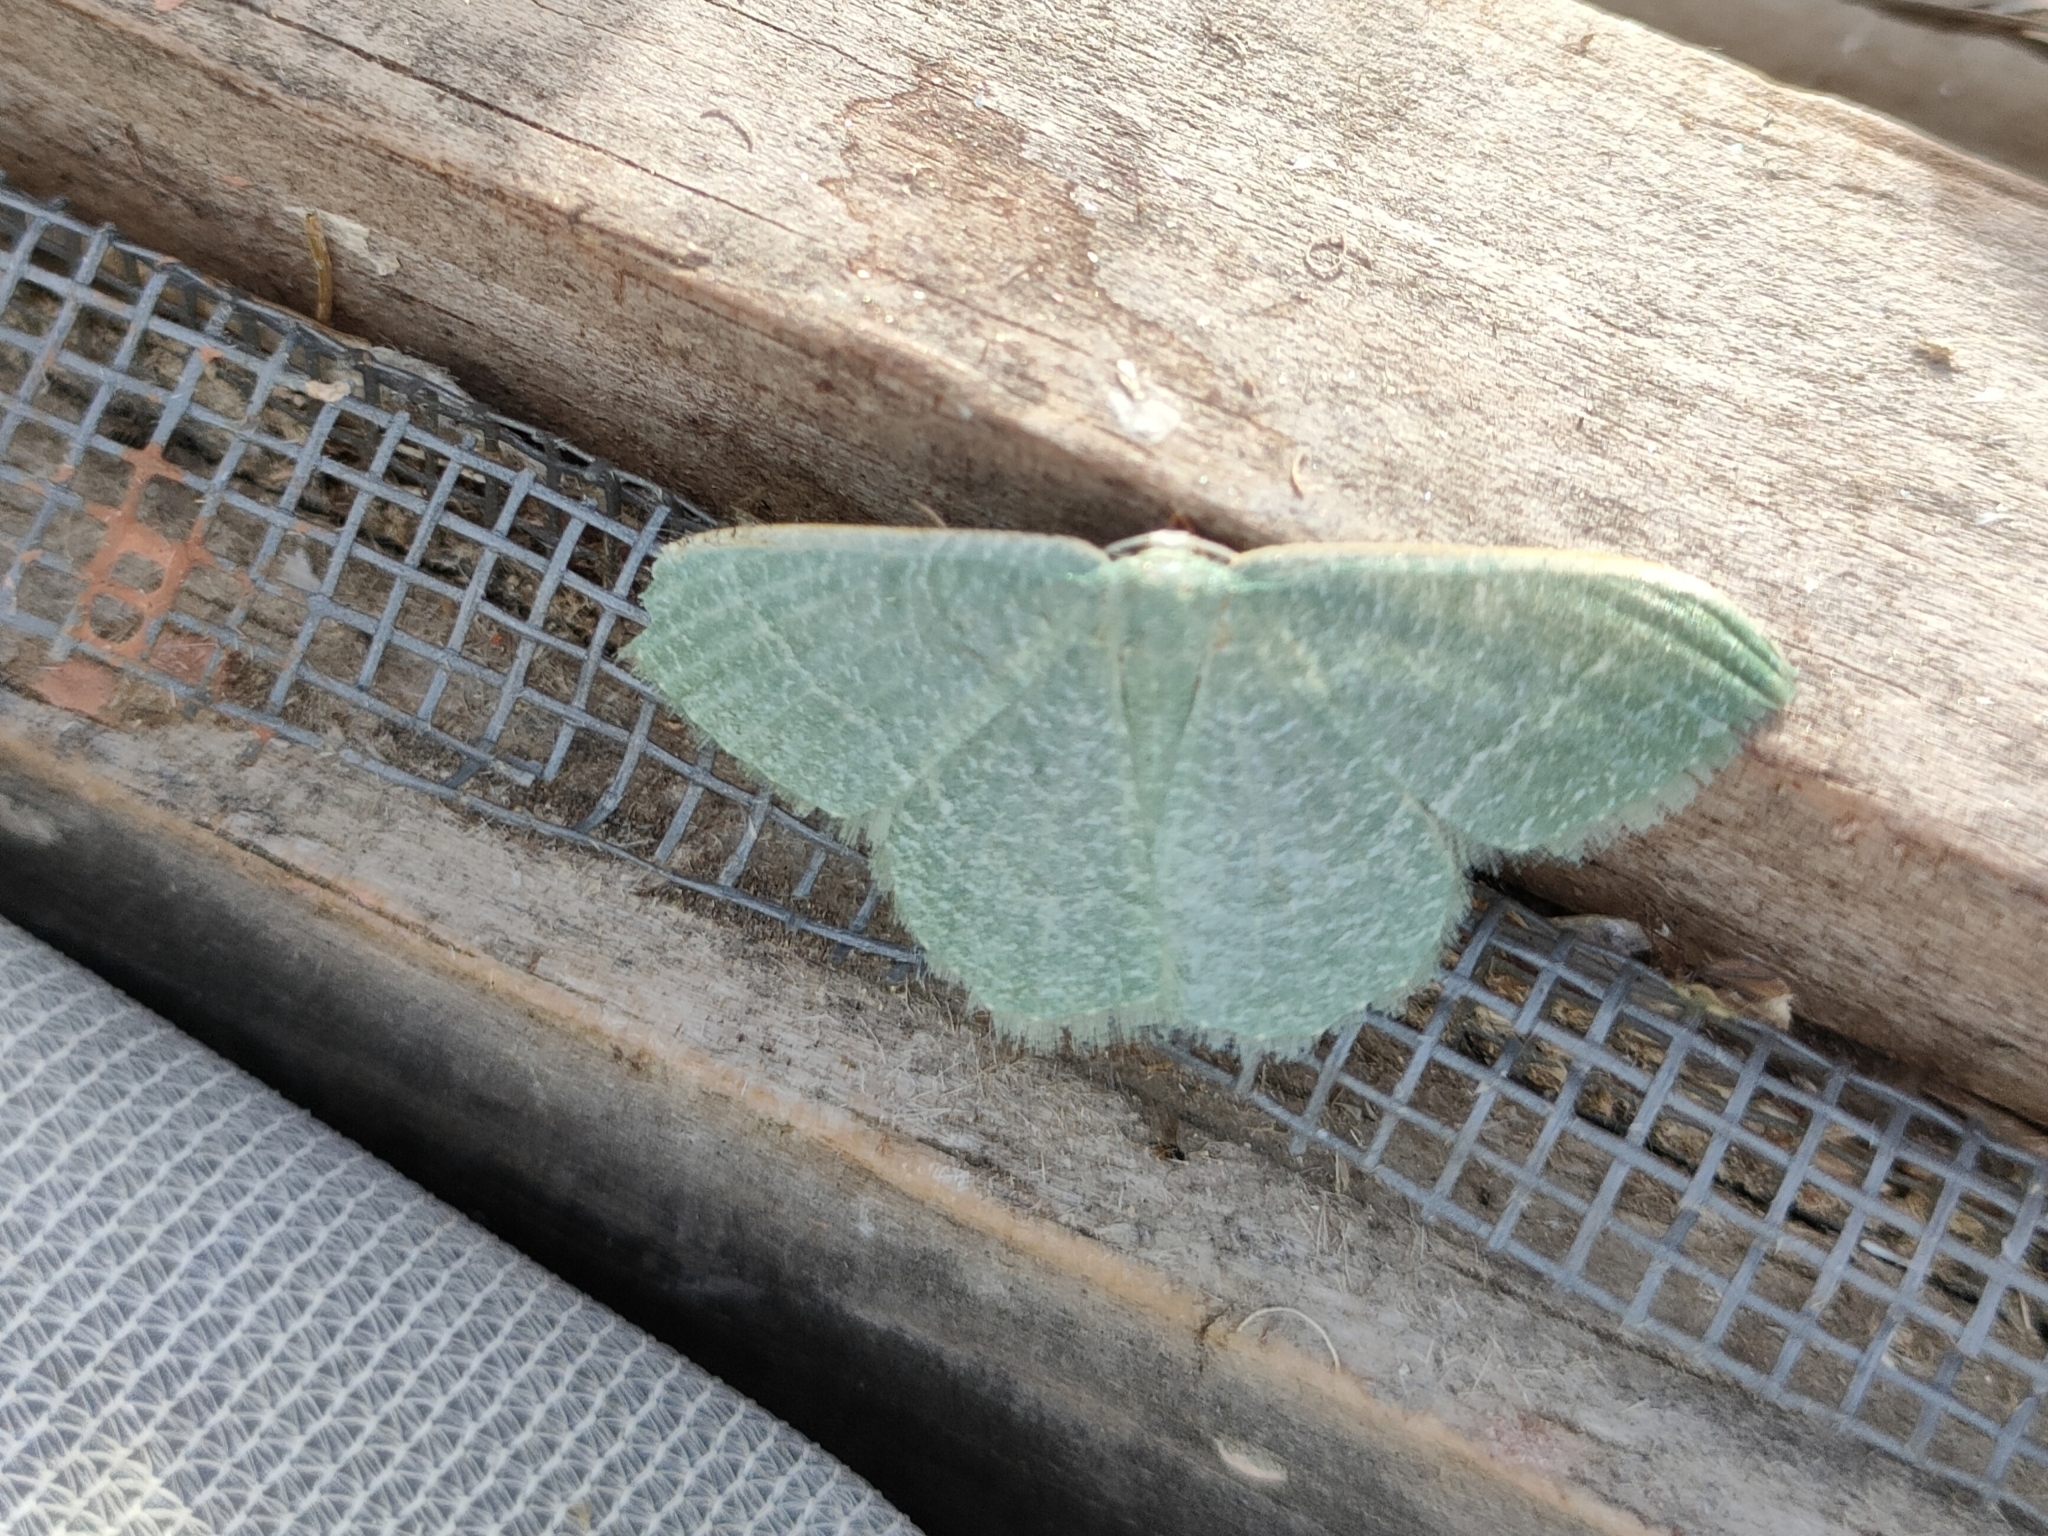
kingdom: Animalia
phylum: Arthropoda
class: Insecta
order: Lepidoptera
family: Geometridae
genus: Chlorissa
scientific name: Chlorissa etruscaria
